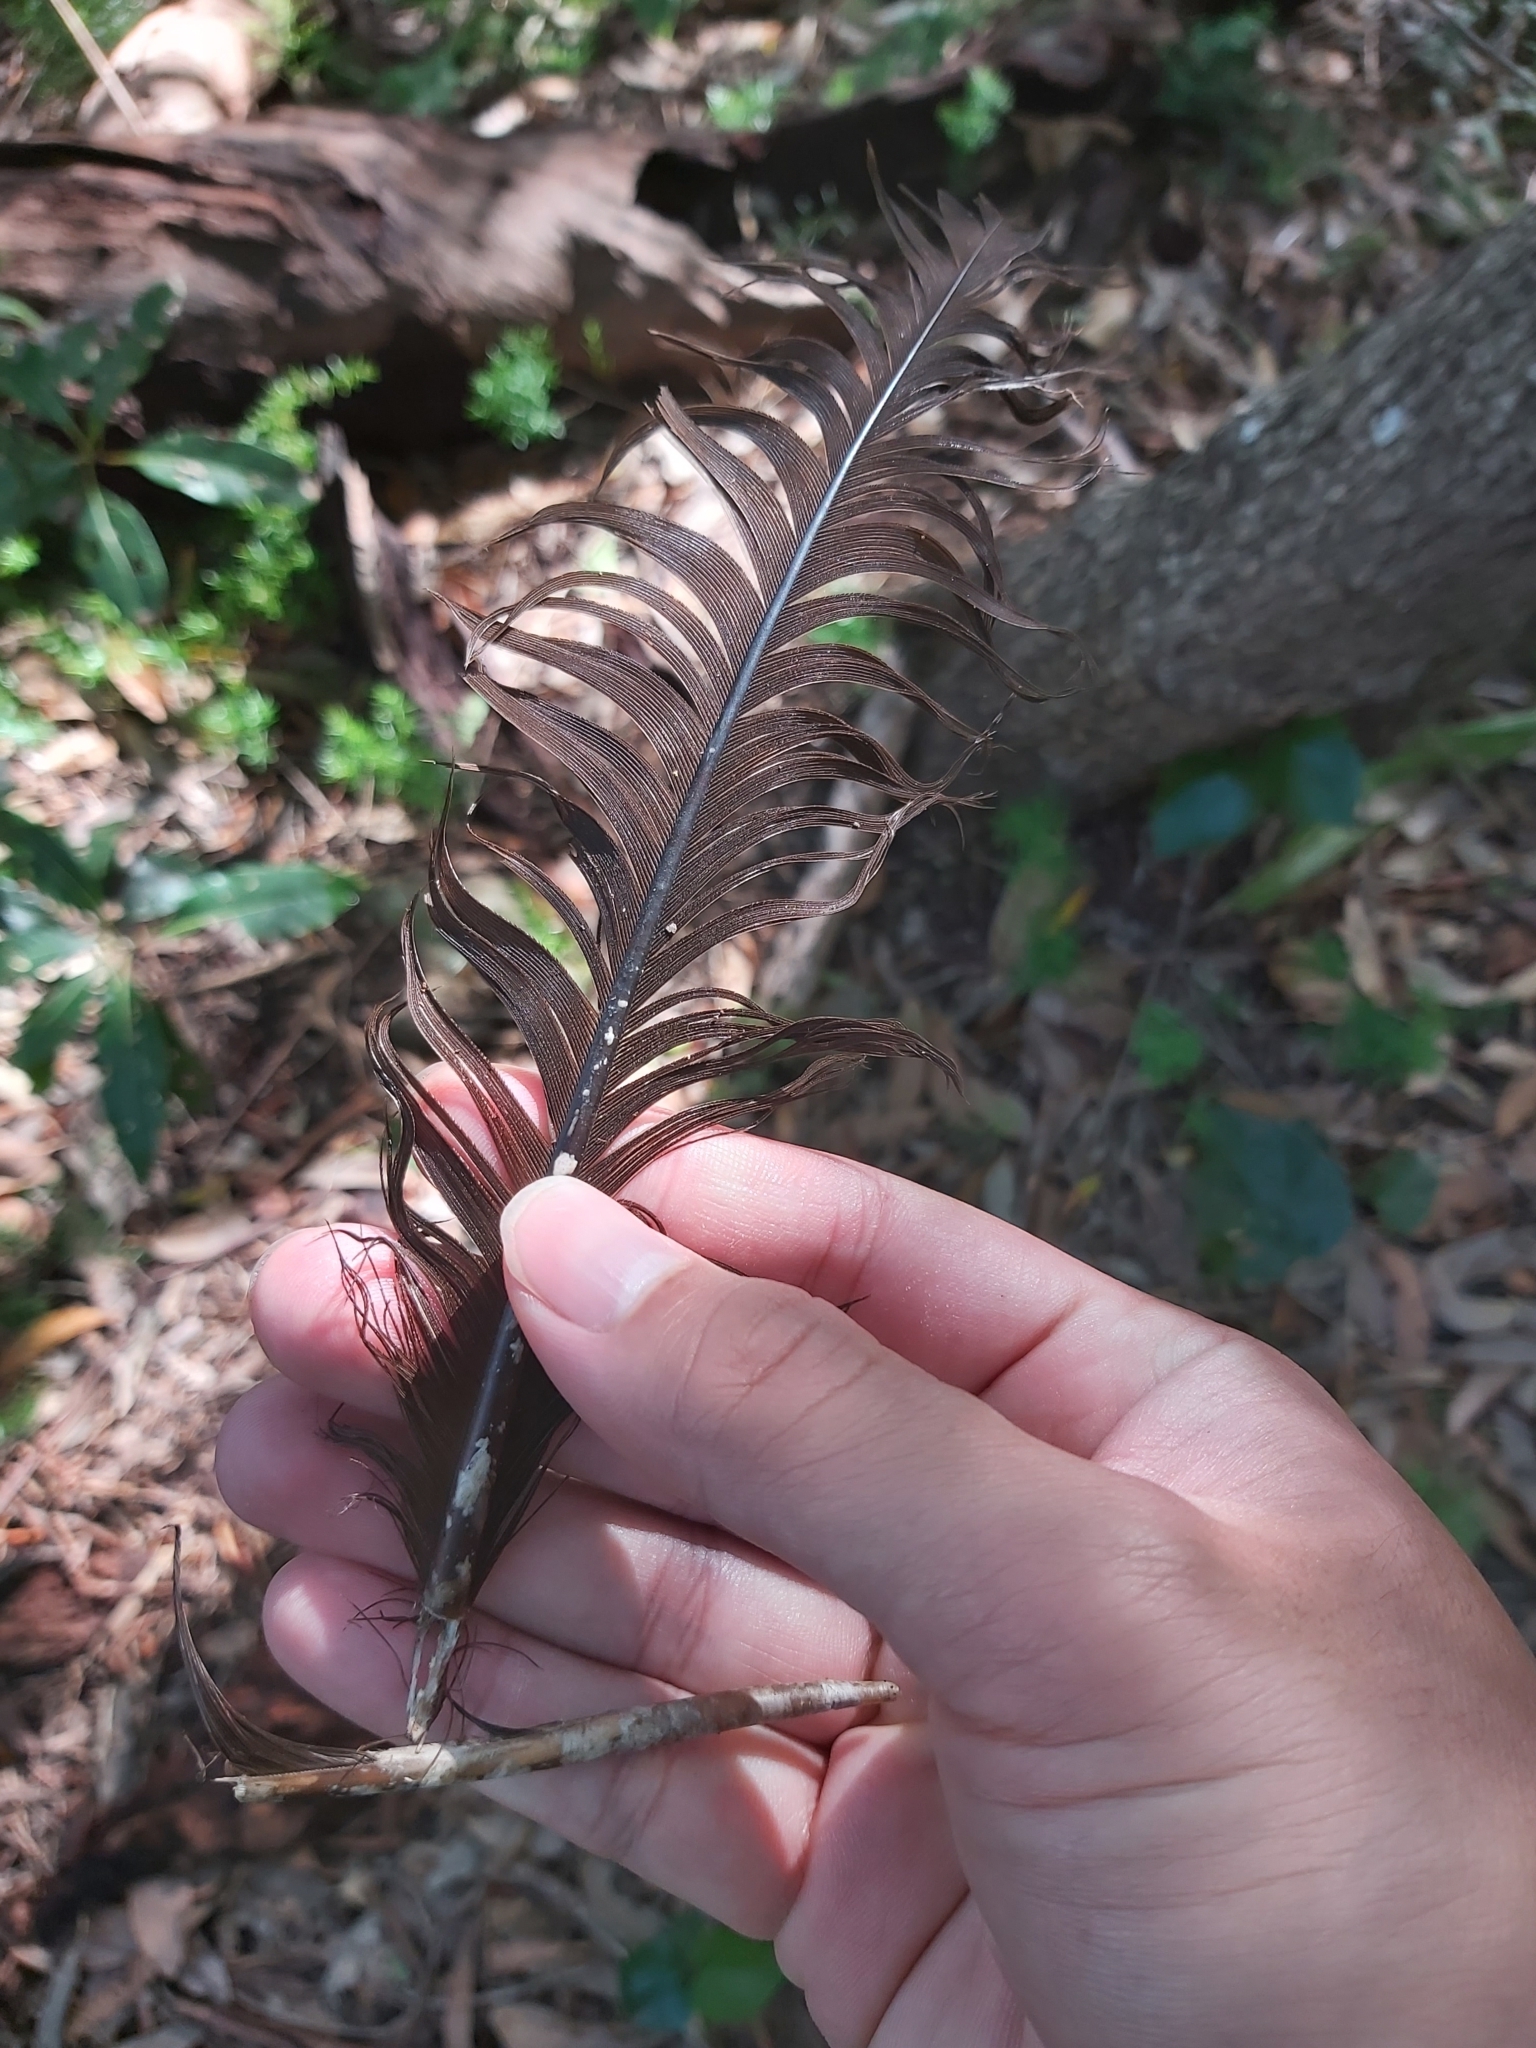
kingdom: Animalia
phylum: Chordata
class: Aves
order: Galliformes
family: Megapodiidae
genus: Alectura
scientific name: Alectura lathami
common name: Australian brushturkey
